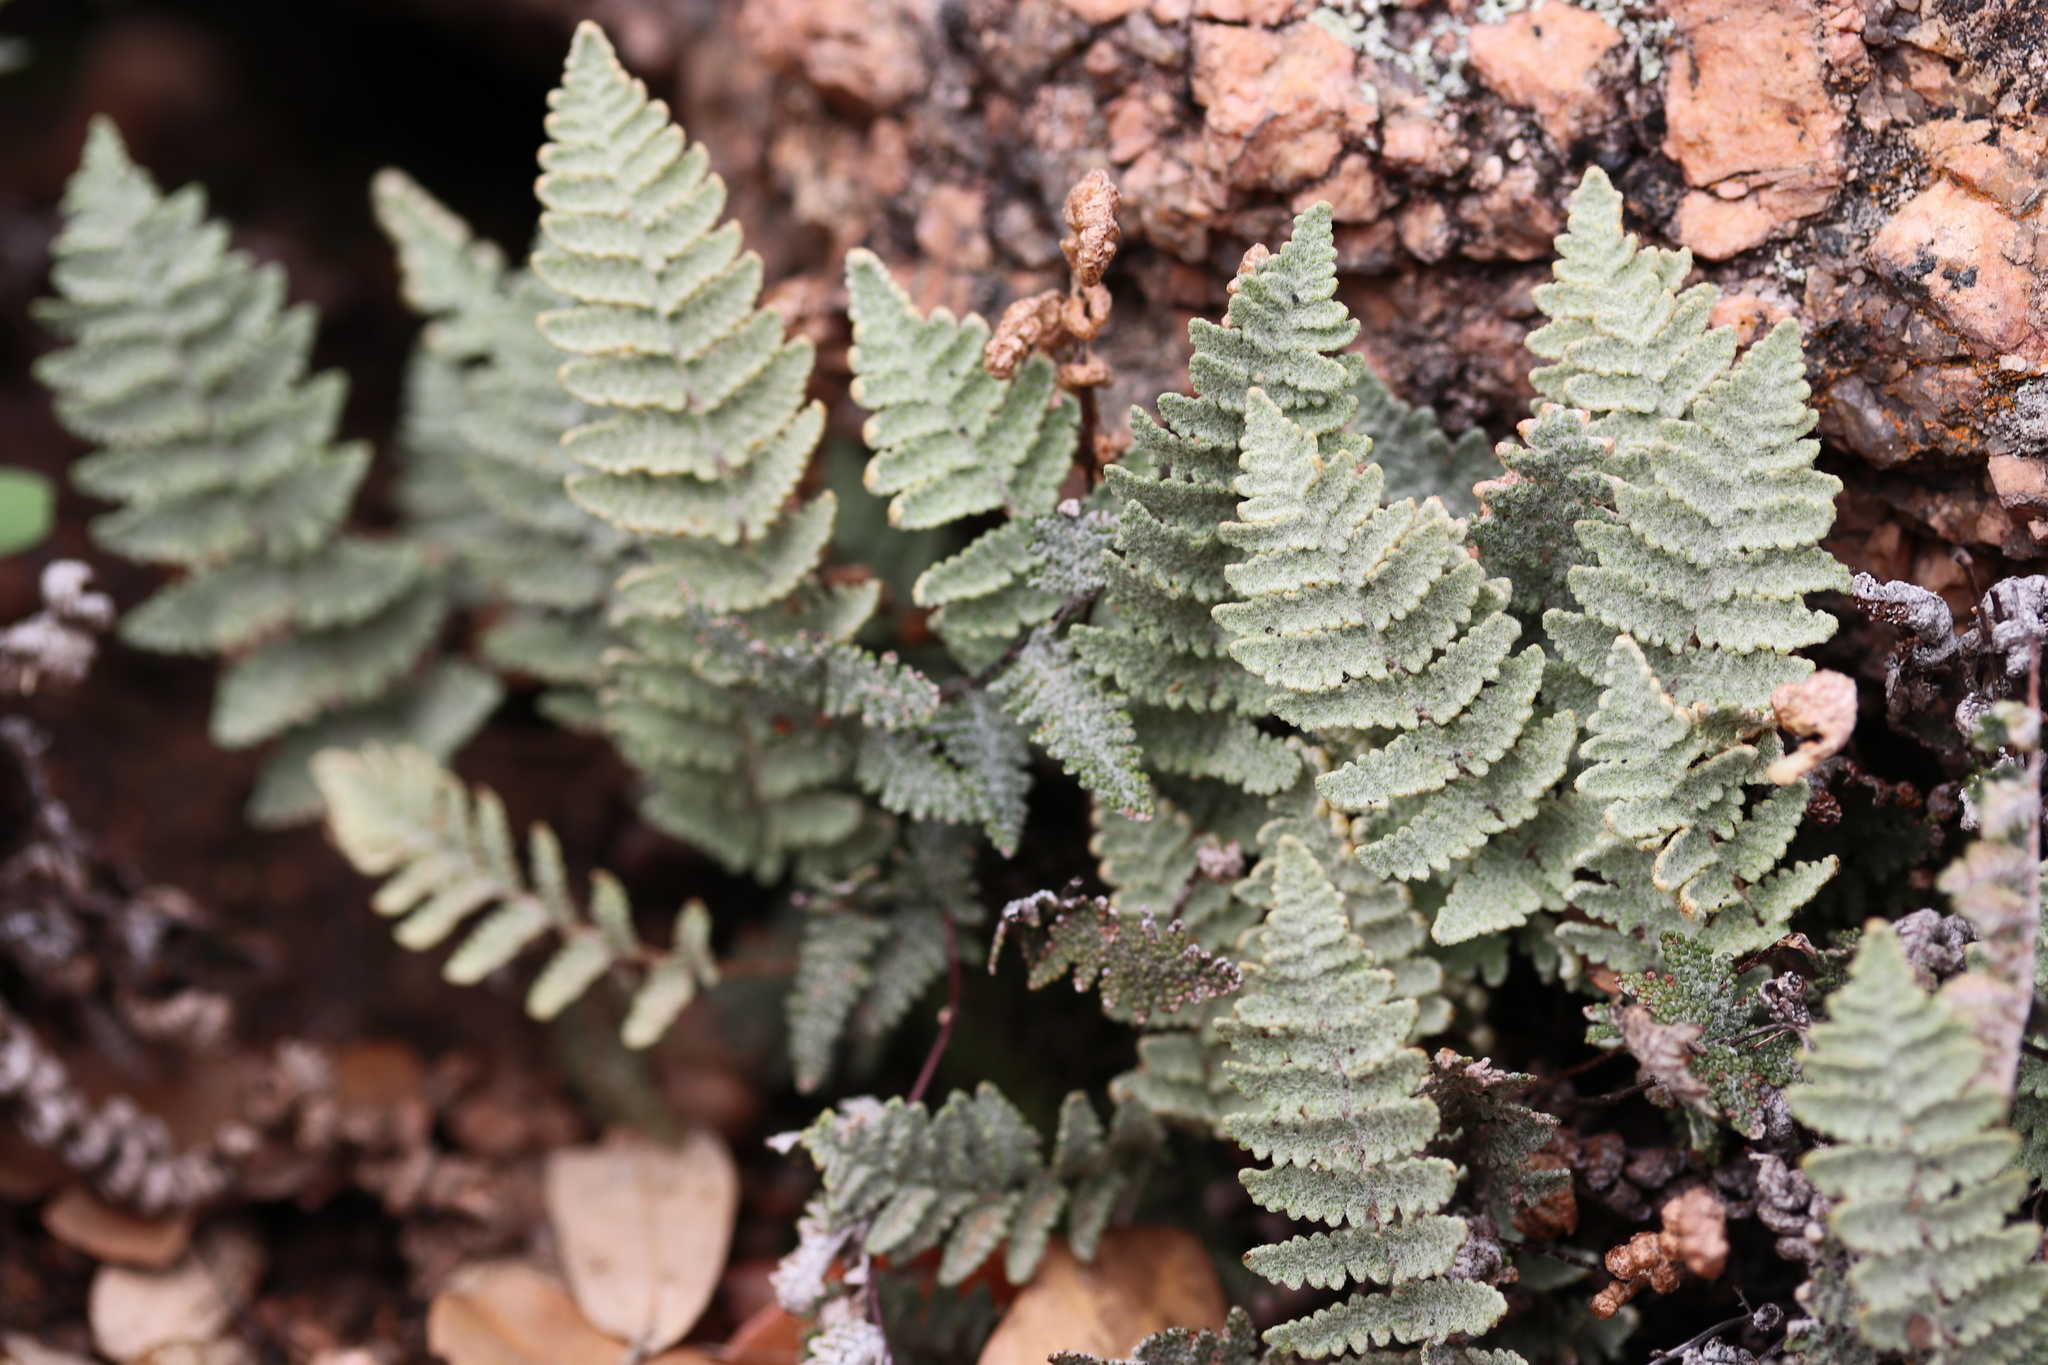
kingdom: Plantae
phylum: Tracheophyta
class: Polypodiopsida
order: Polypodiales
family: Pteridaceae
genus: Myriopteris
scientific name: Myriopteris lindheimeri
